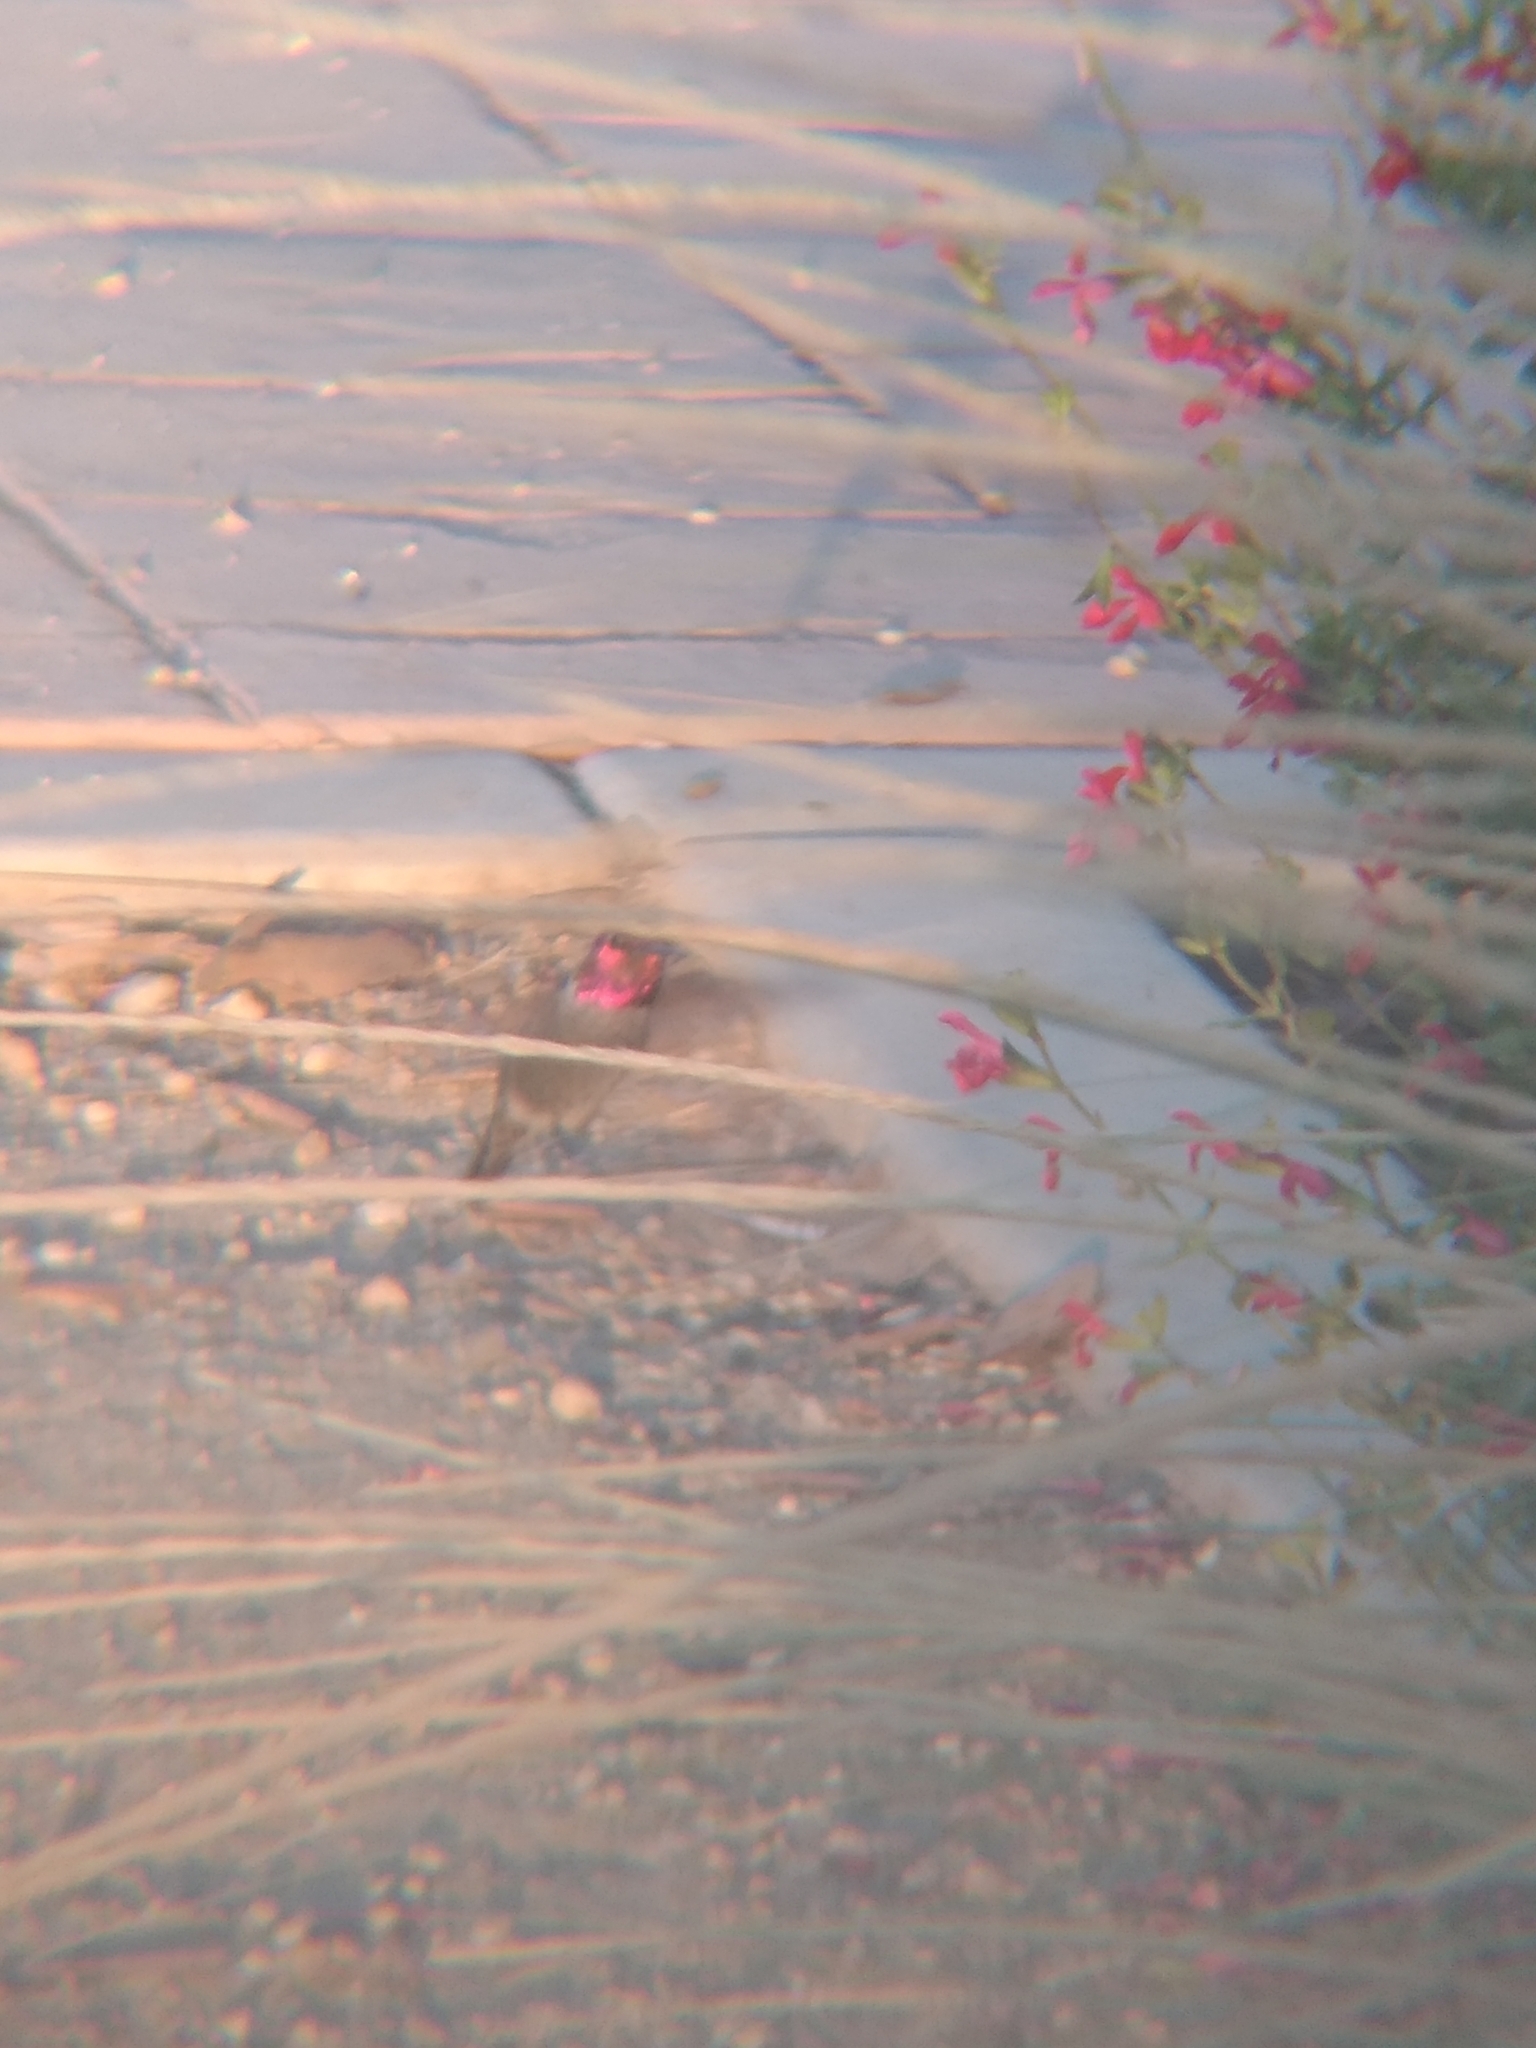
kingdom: Animalia
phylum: Chordata
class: Aves
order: Apodiformes
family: Trochilidae
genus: Calypte
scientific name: Calypte anna
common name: Anna's hummingbird
